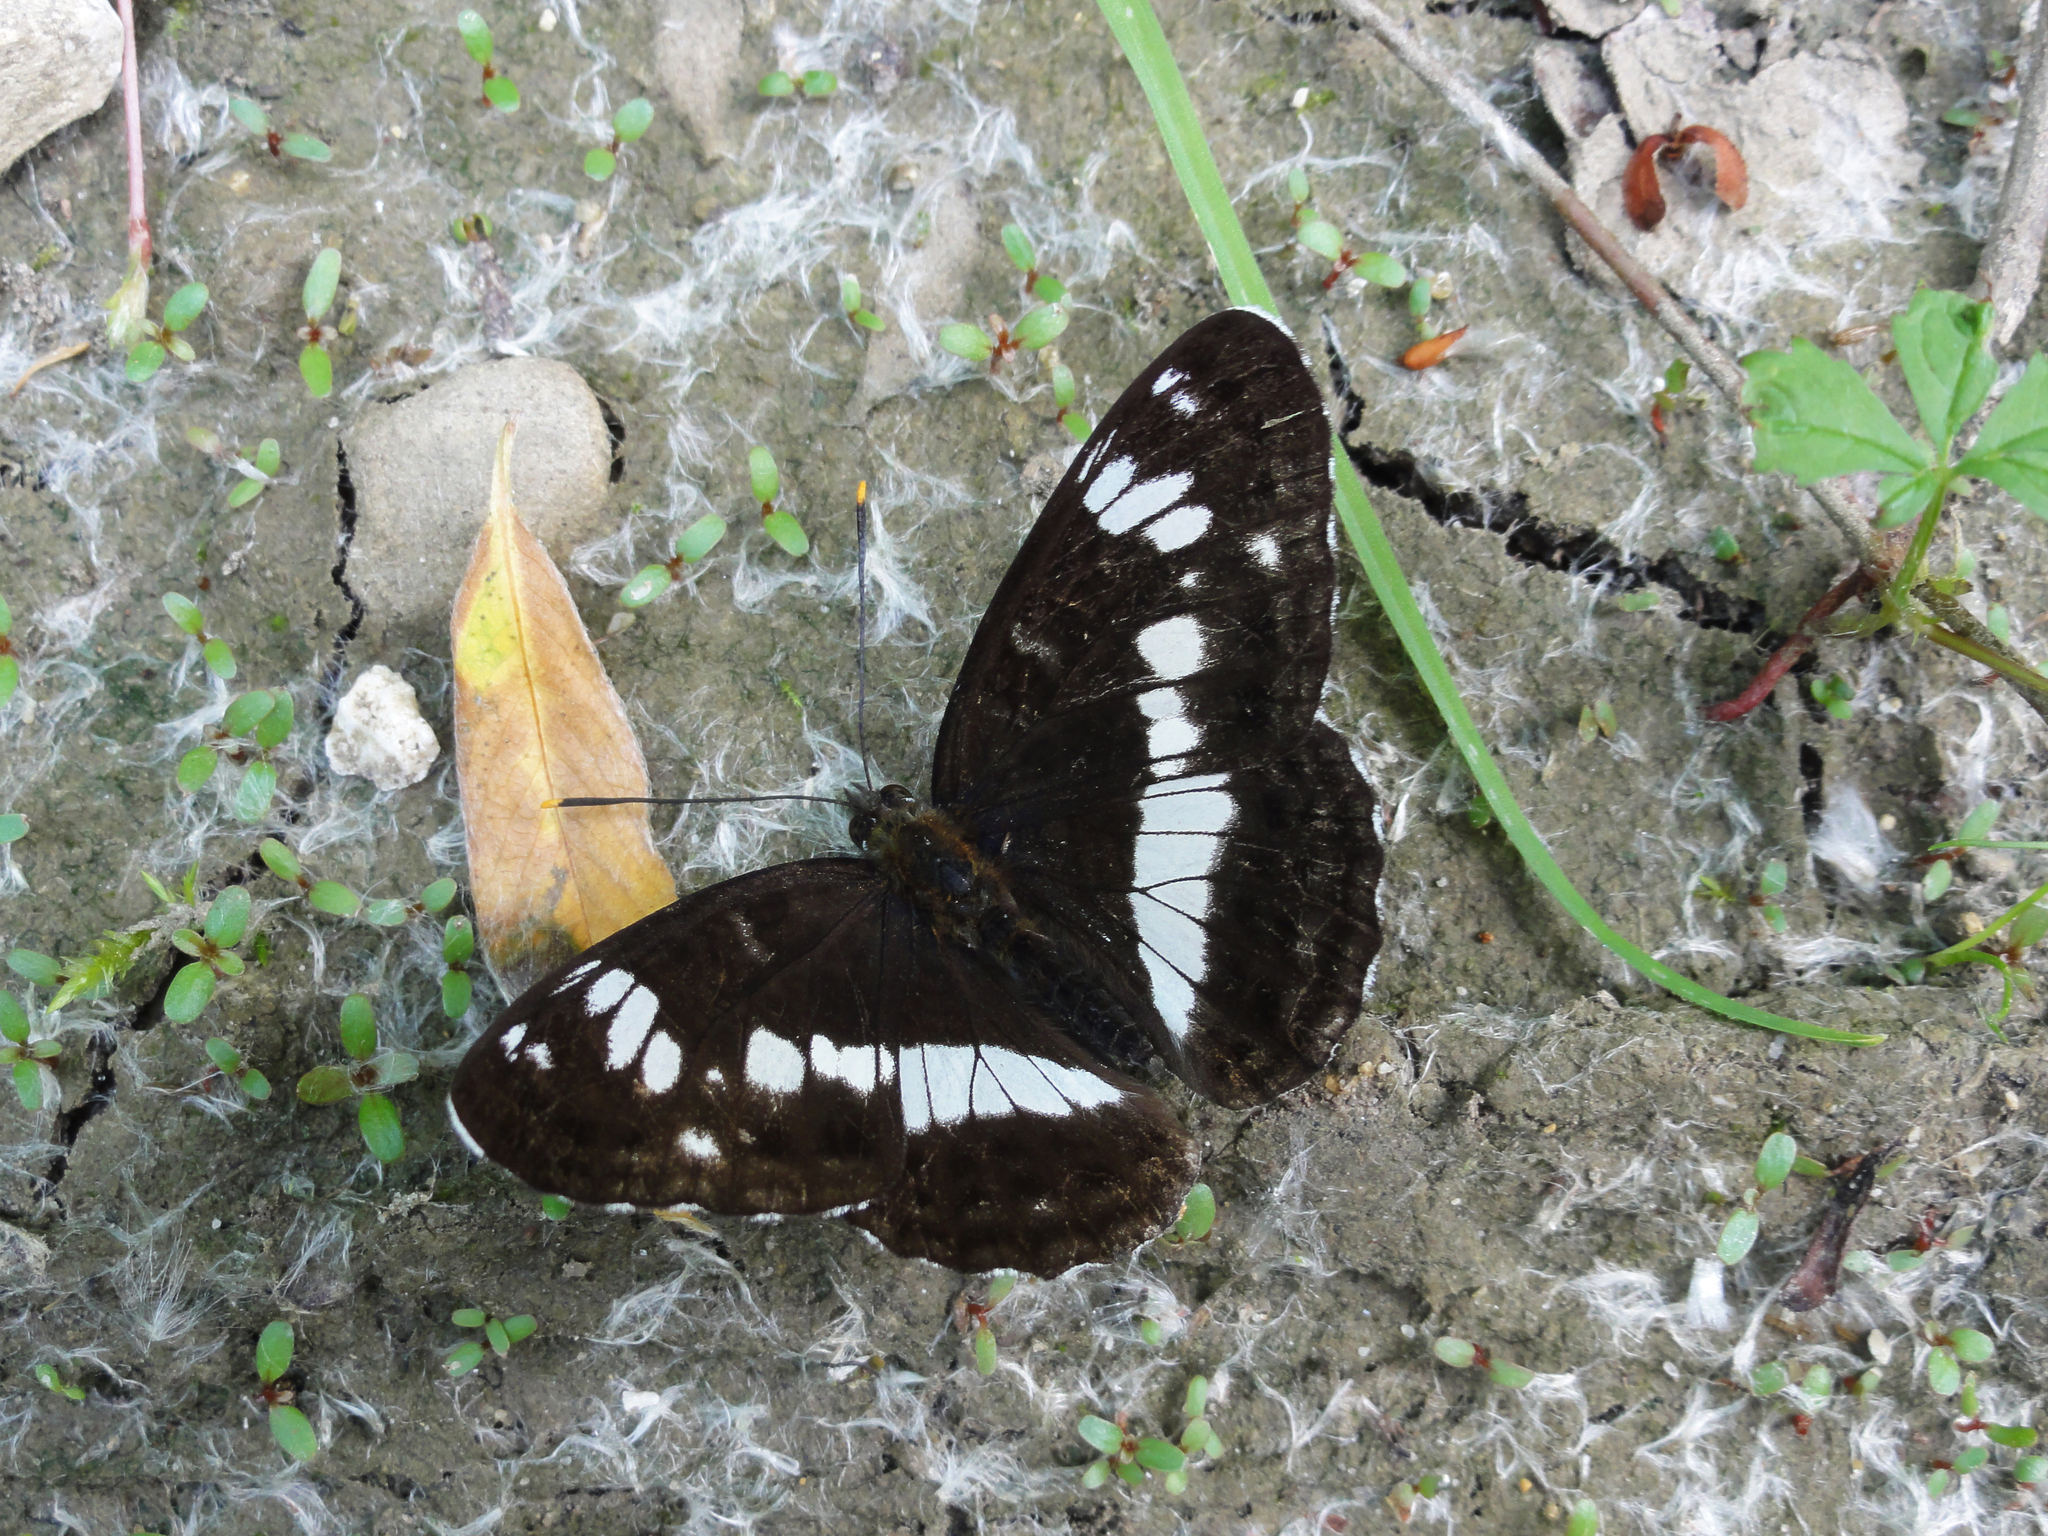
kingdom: Animalia
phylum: Arthropoda
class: Insecta
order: Lepidoptera
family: Nymphalidae
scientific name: Nymphalidae
